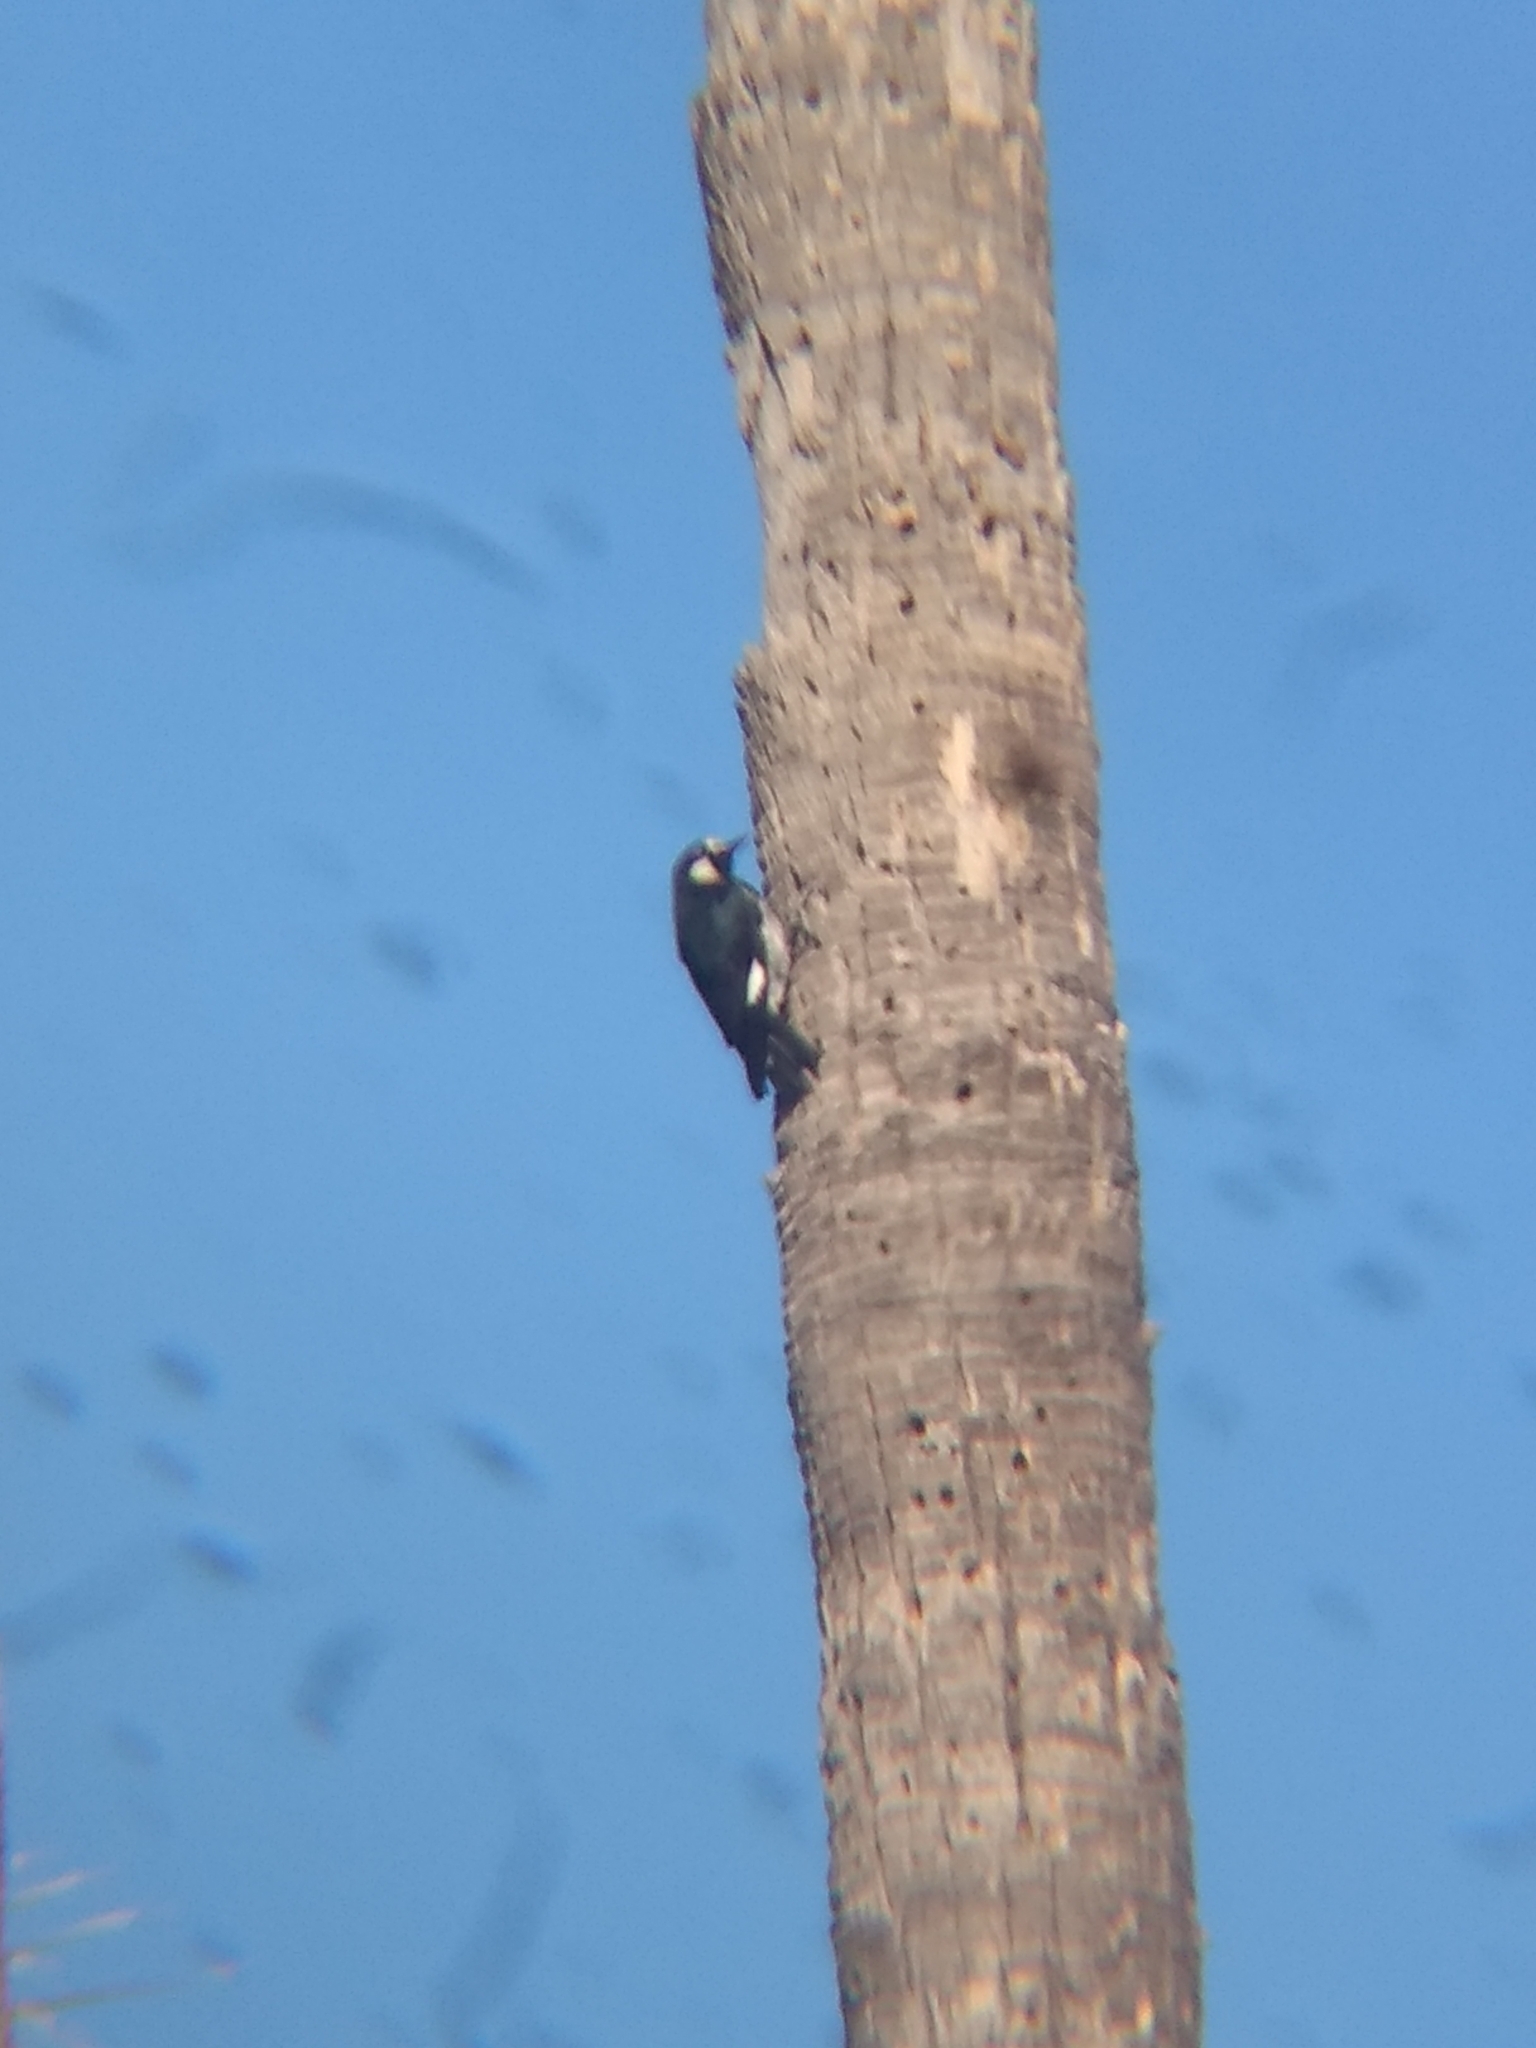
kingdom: Animalia
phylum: Chordata
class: Aves
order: Piciformes
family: Picidae
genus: Melanerpes
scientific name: Melanerpes formicivorus
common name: Acorn woodpecker
